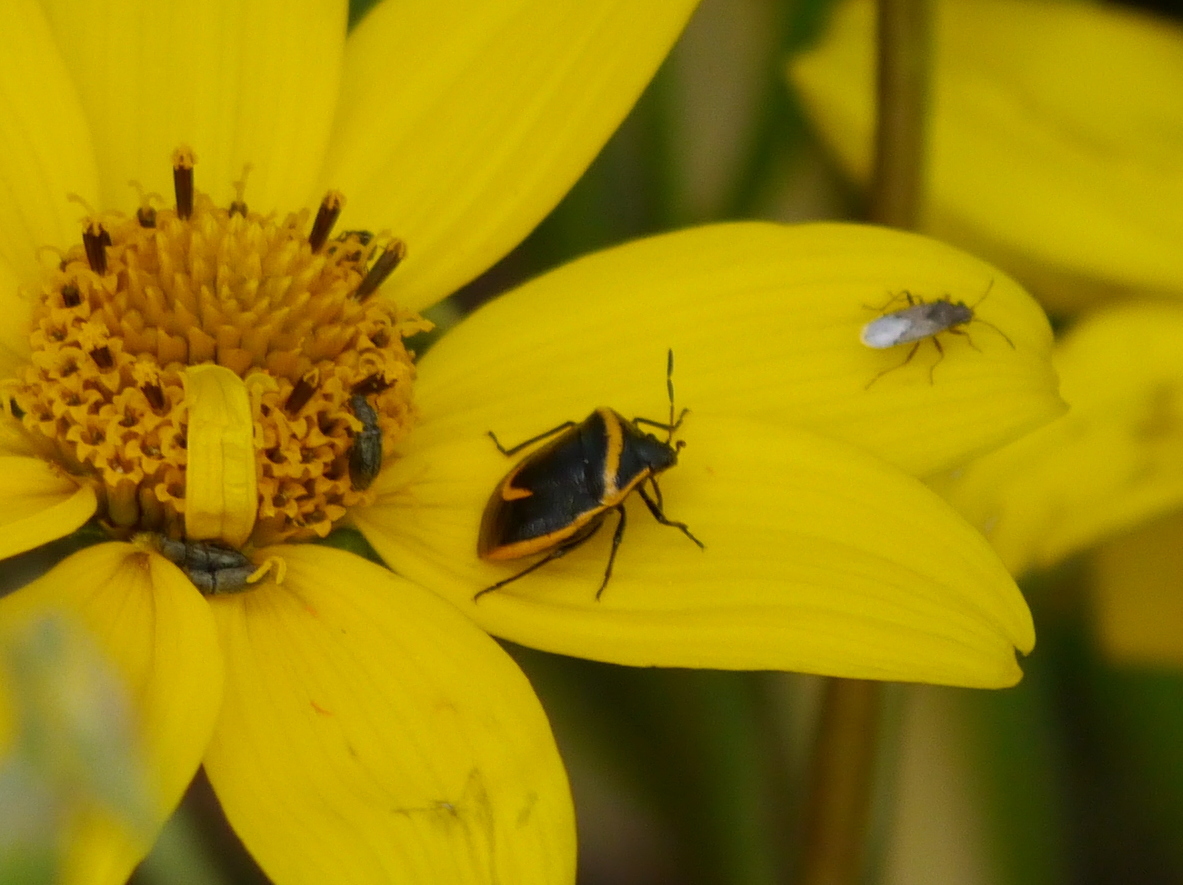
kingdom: Animalia
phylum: Arthropoda
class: Insecta
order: Hemiptera
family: Pentatomidae
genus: Cosmopepla
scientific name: Cosmopepla decorata
